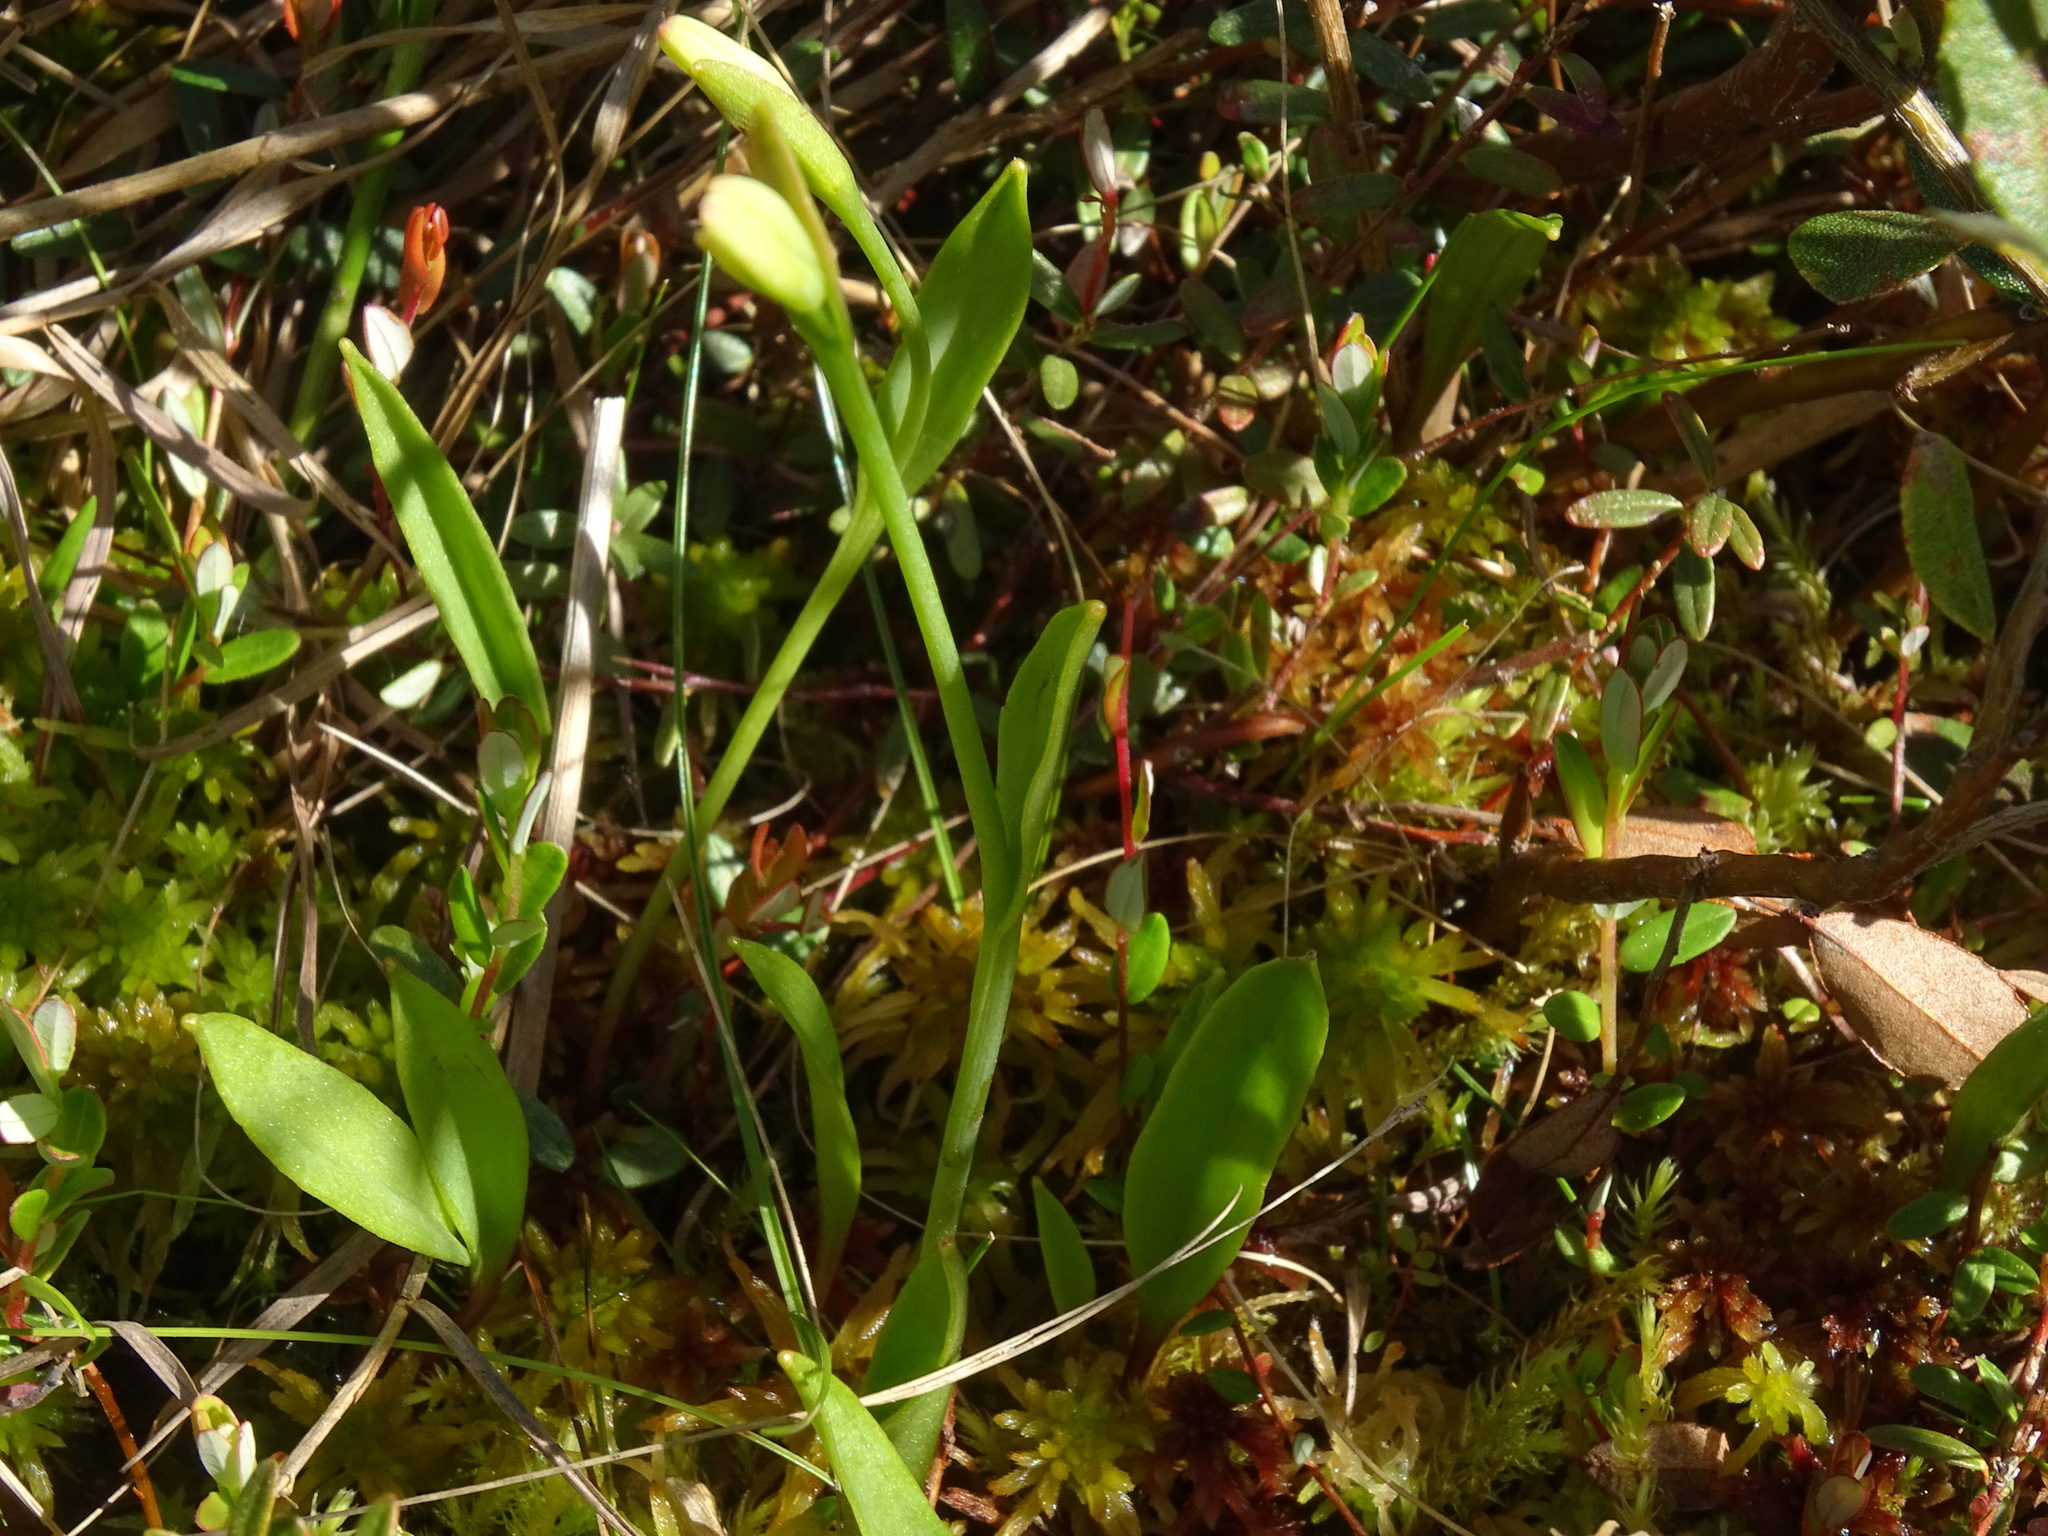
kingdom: Plantae
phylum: Tracheophyta
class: Liliopsida
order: Asparagales
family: Orchidaceae
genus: Pogonia
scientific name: Pogonia ophioglossoides
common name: Rose pogonia
